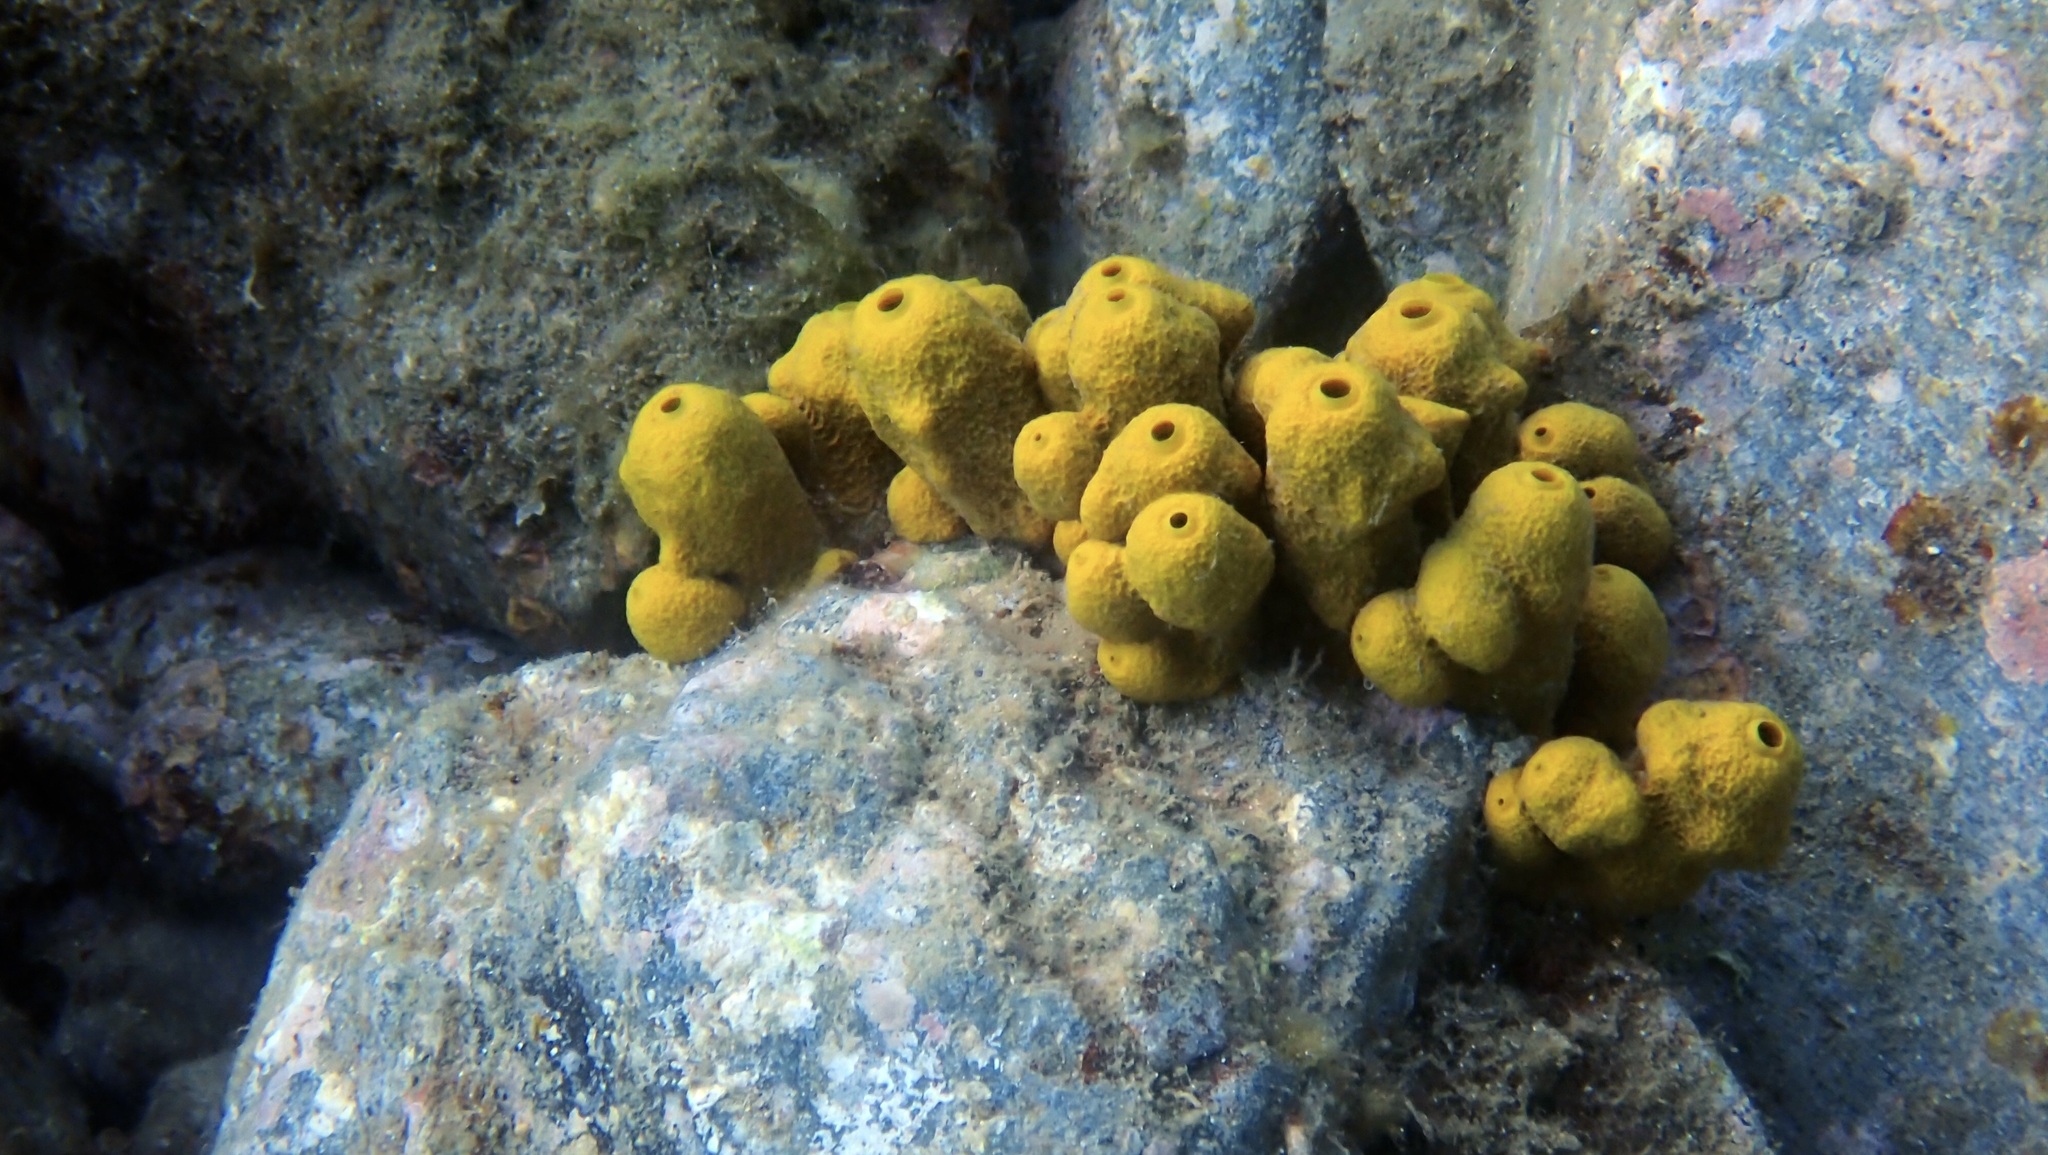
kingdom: Animalia
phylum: Porifera
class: Demospongiae
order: Verongiida
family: Aplysinidae
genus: Aplysina
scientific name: Aplysina aerophoba
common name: Aureate sponge
